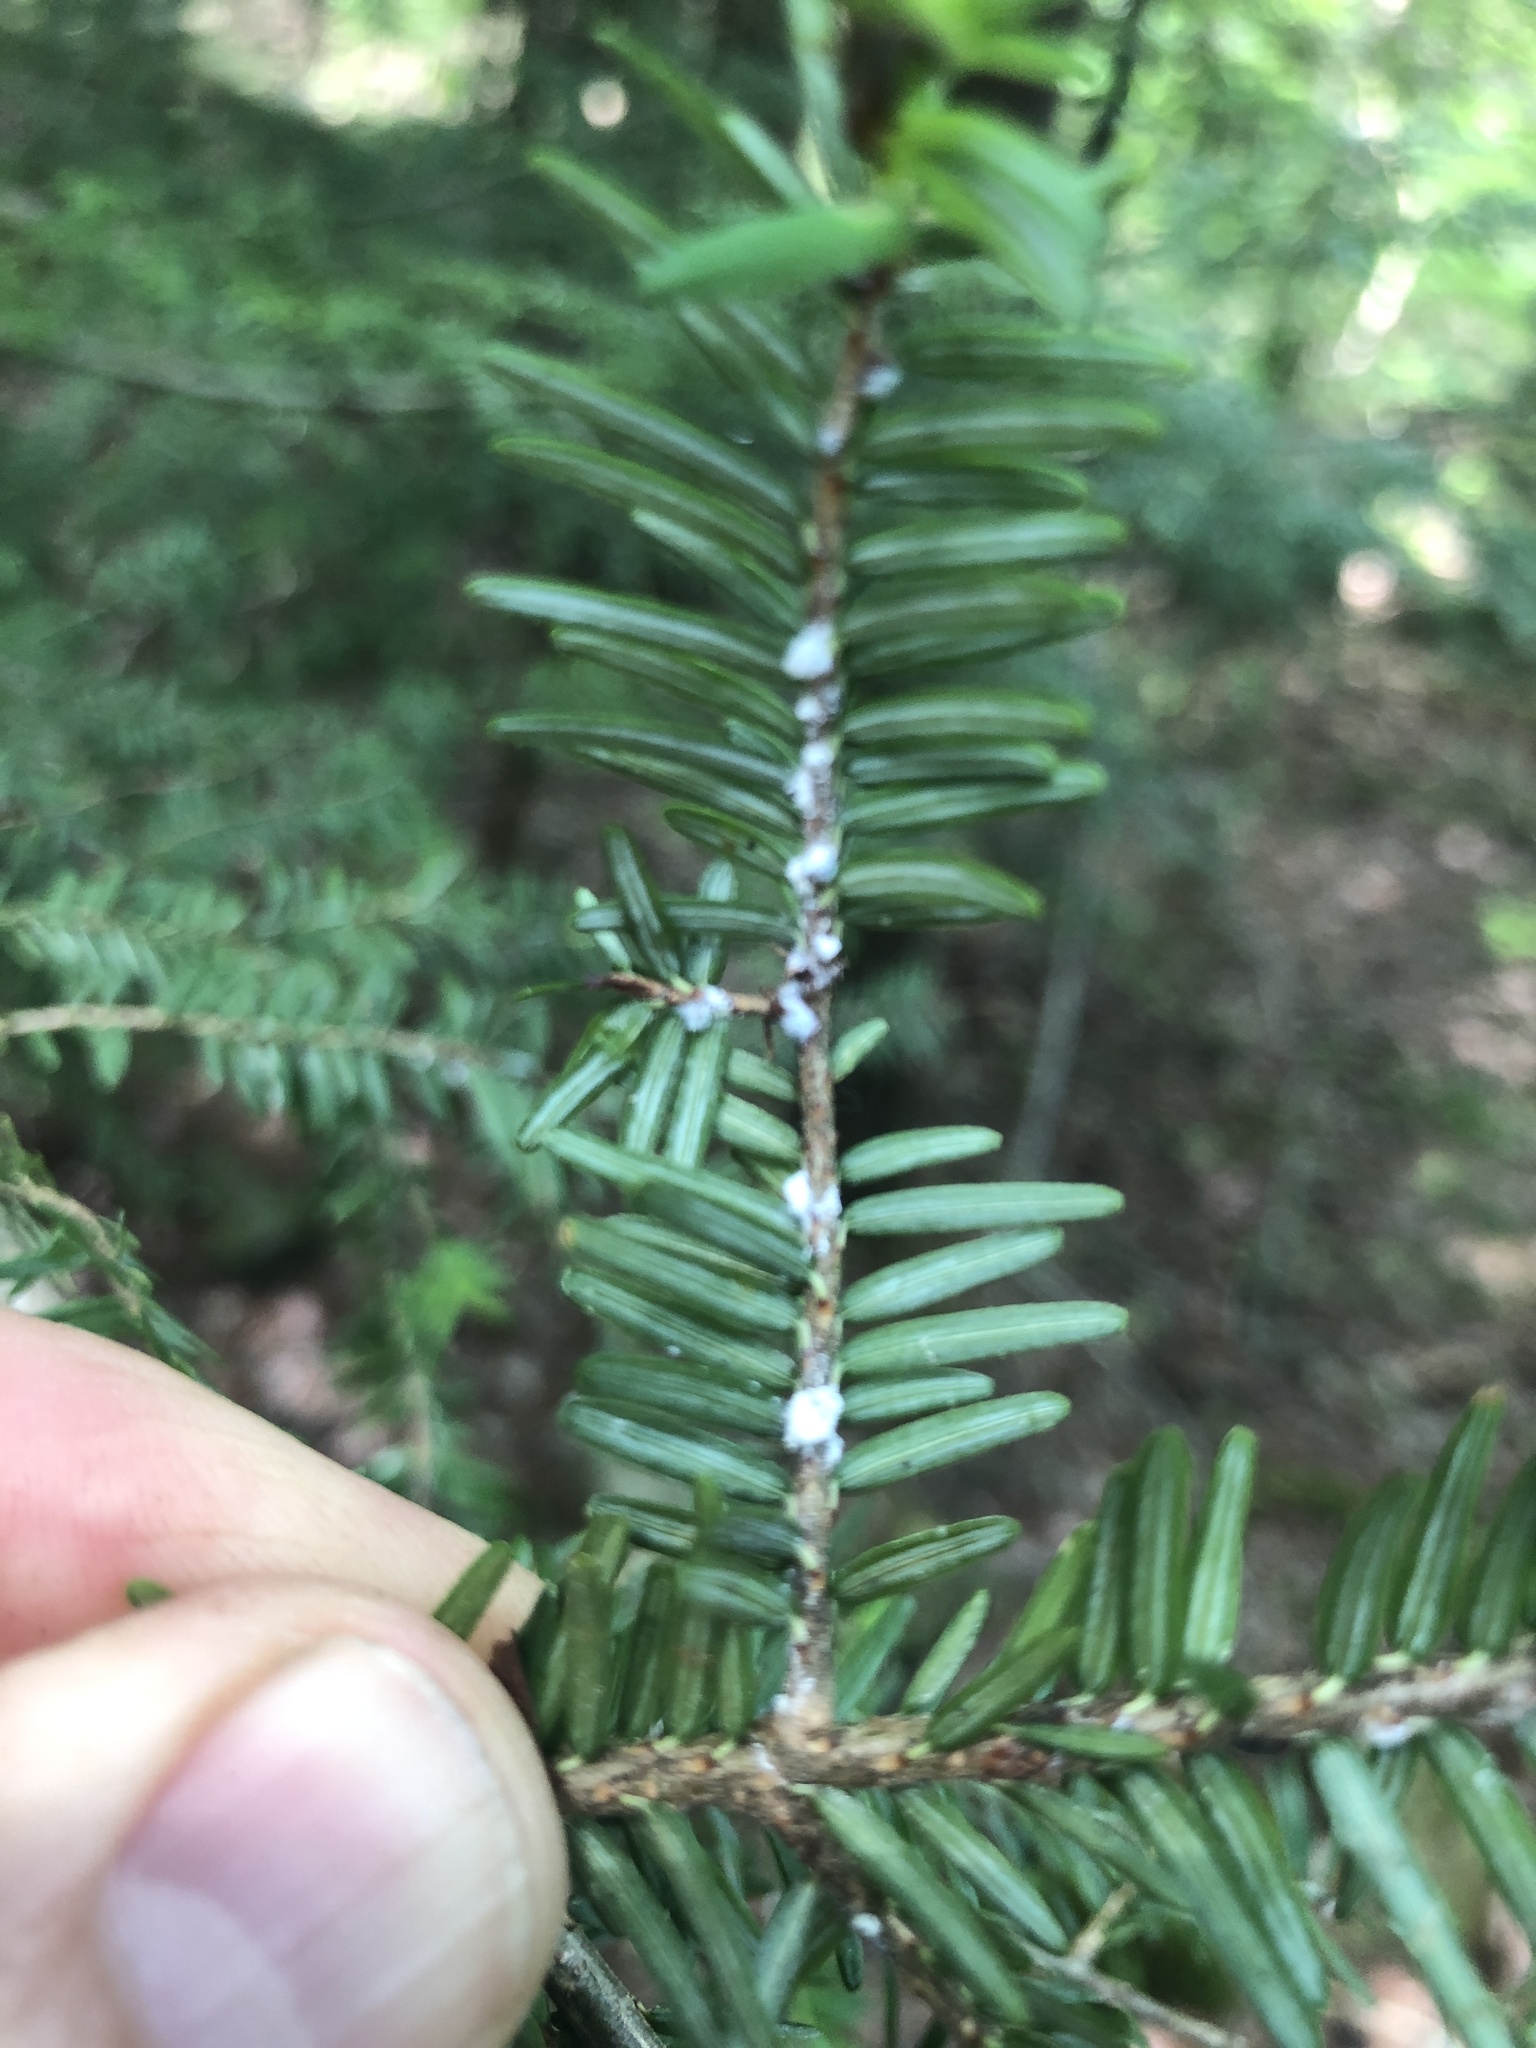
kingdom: Animalia
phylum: Arthropoda
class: Insecta
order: Hemiptera
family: Adelgidae
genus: Adelges
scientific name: Adelges tsugae
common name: Hemlock woolly adelgid
